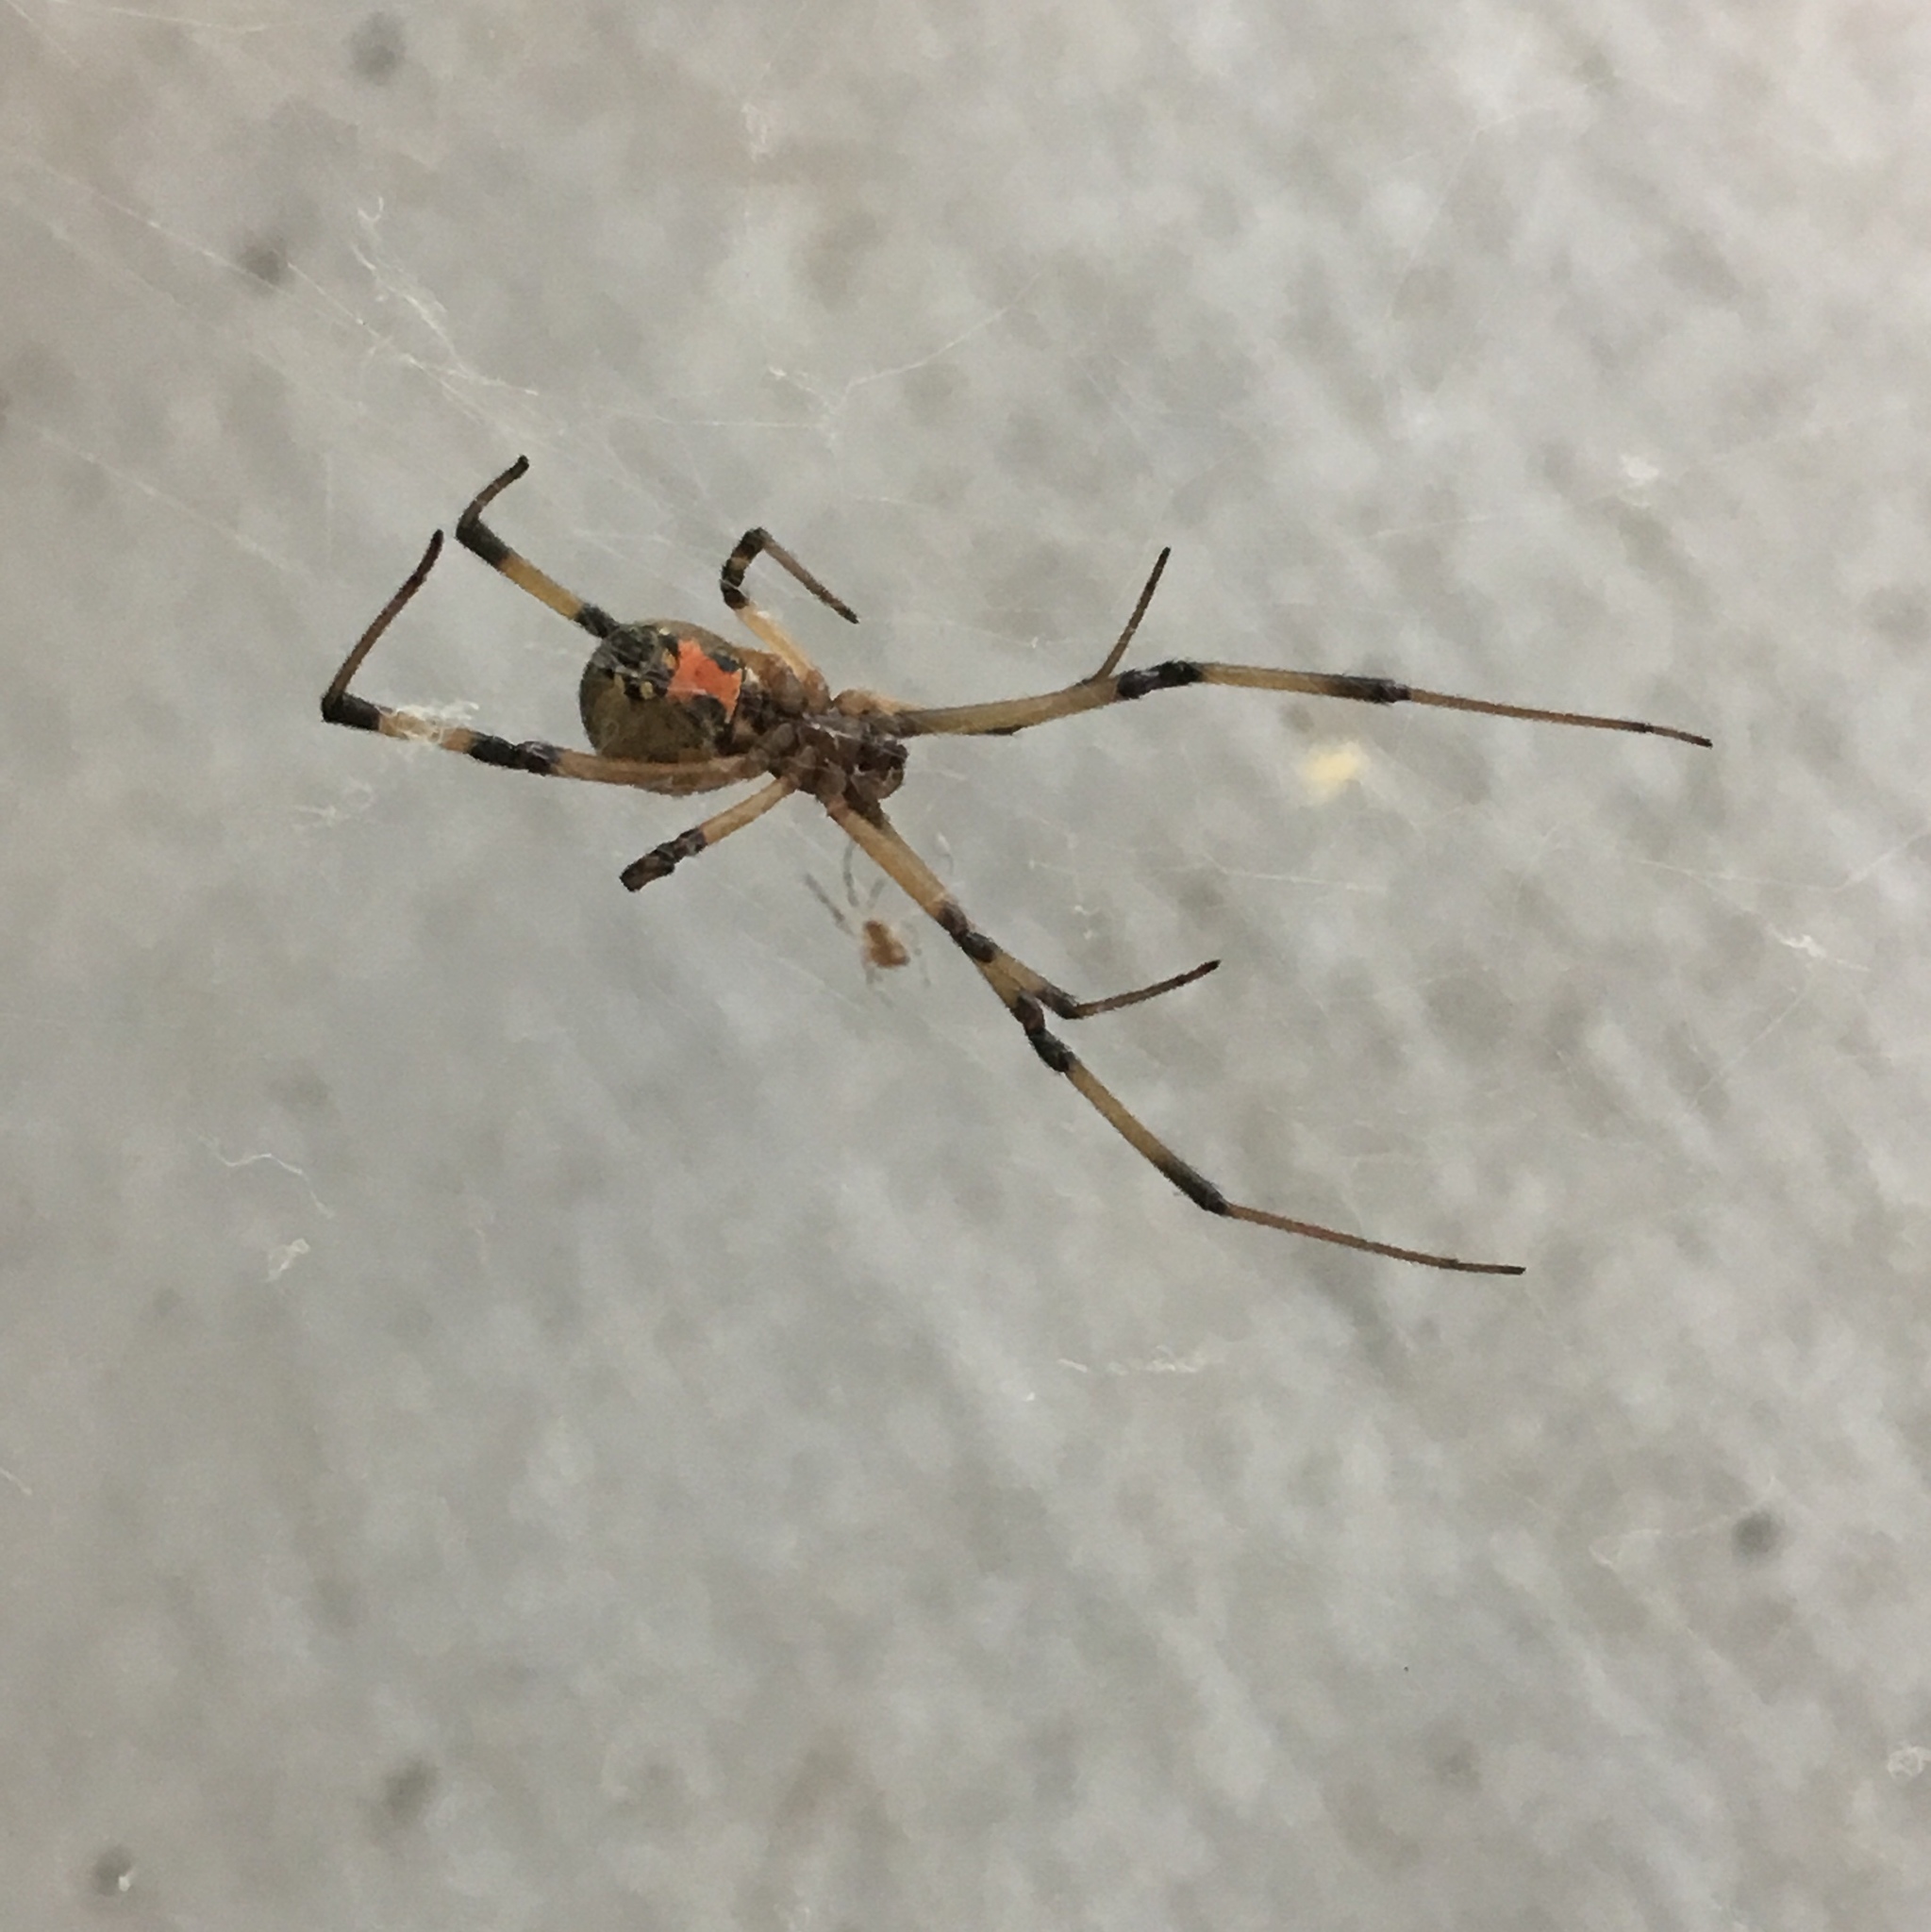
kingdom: Animalia
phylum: Arthropoda
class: Arachnida
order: Araneae
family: Theridiidae
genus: Latrodectus
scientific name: Latrodectus geometricus
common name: Brown widow spider
